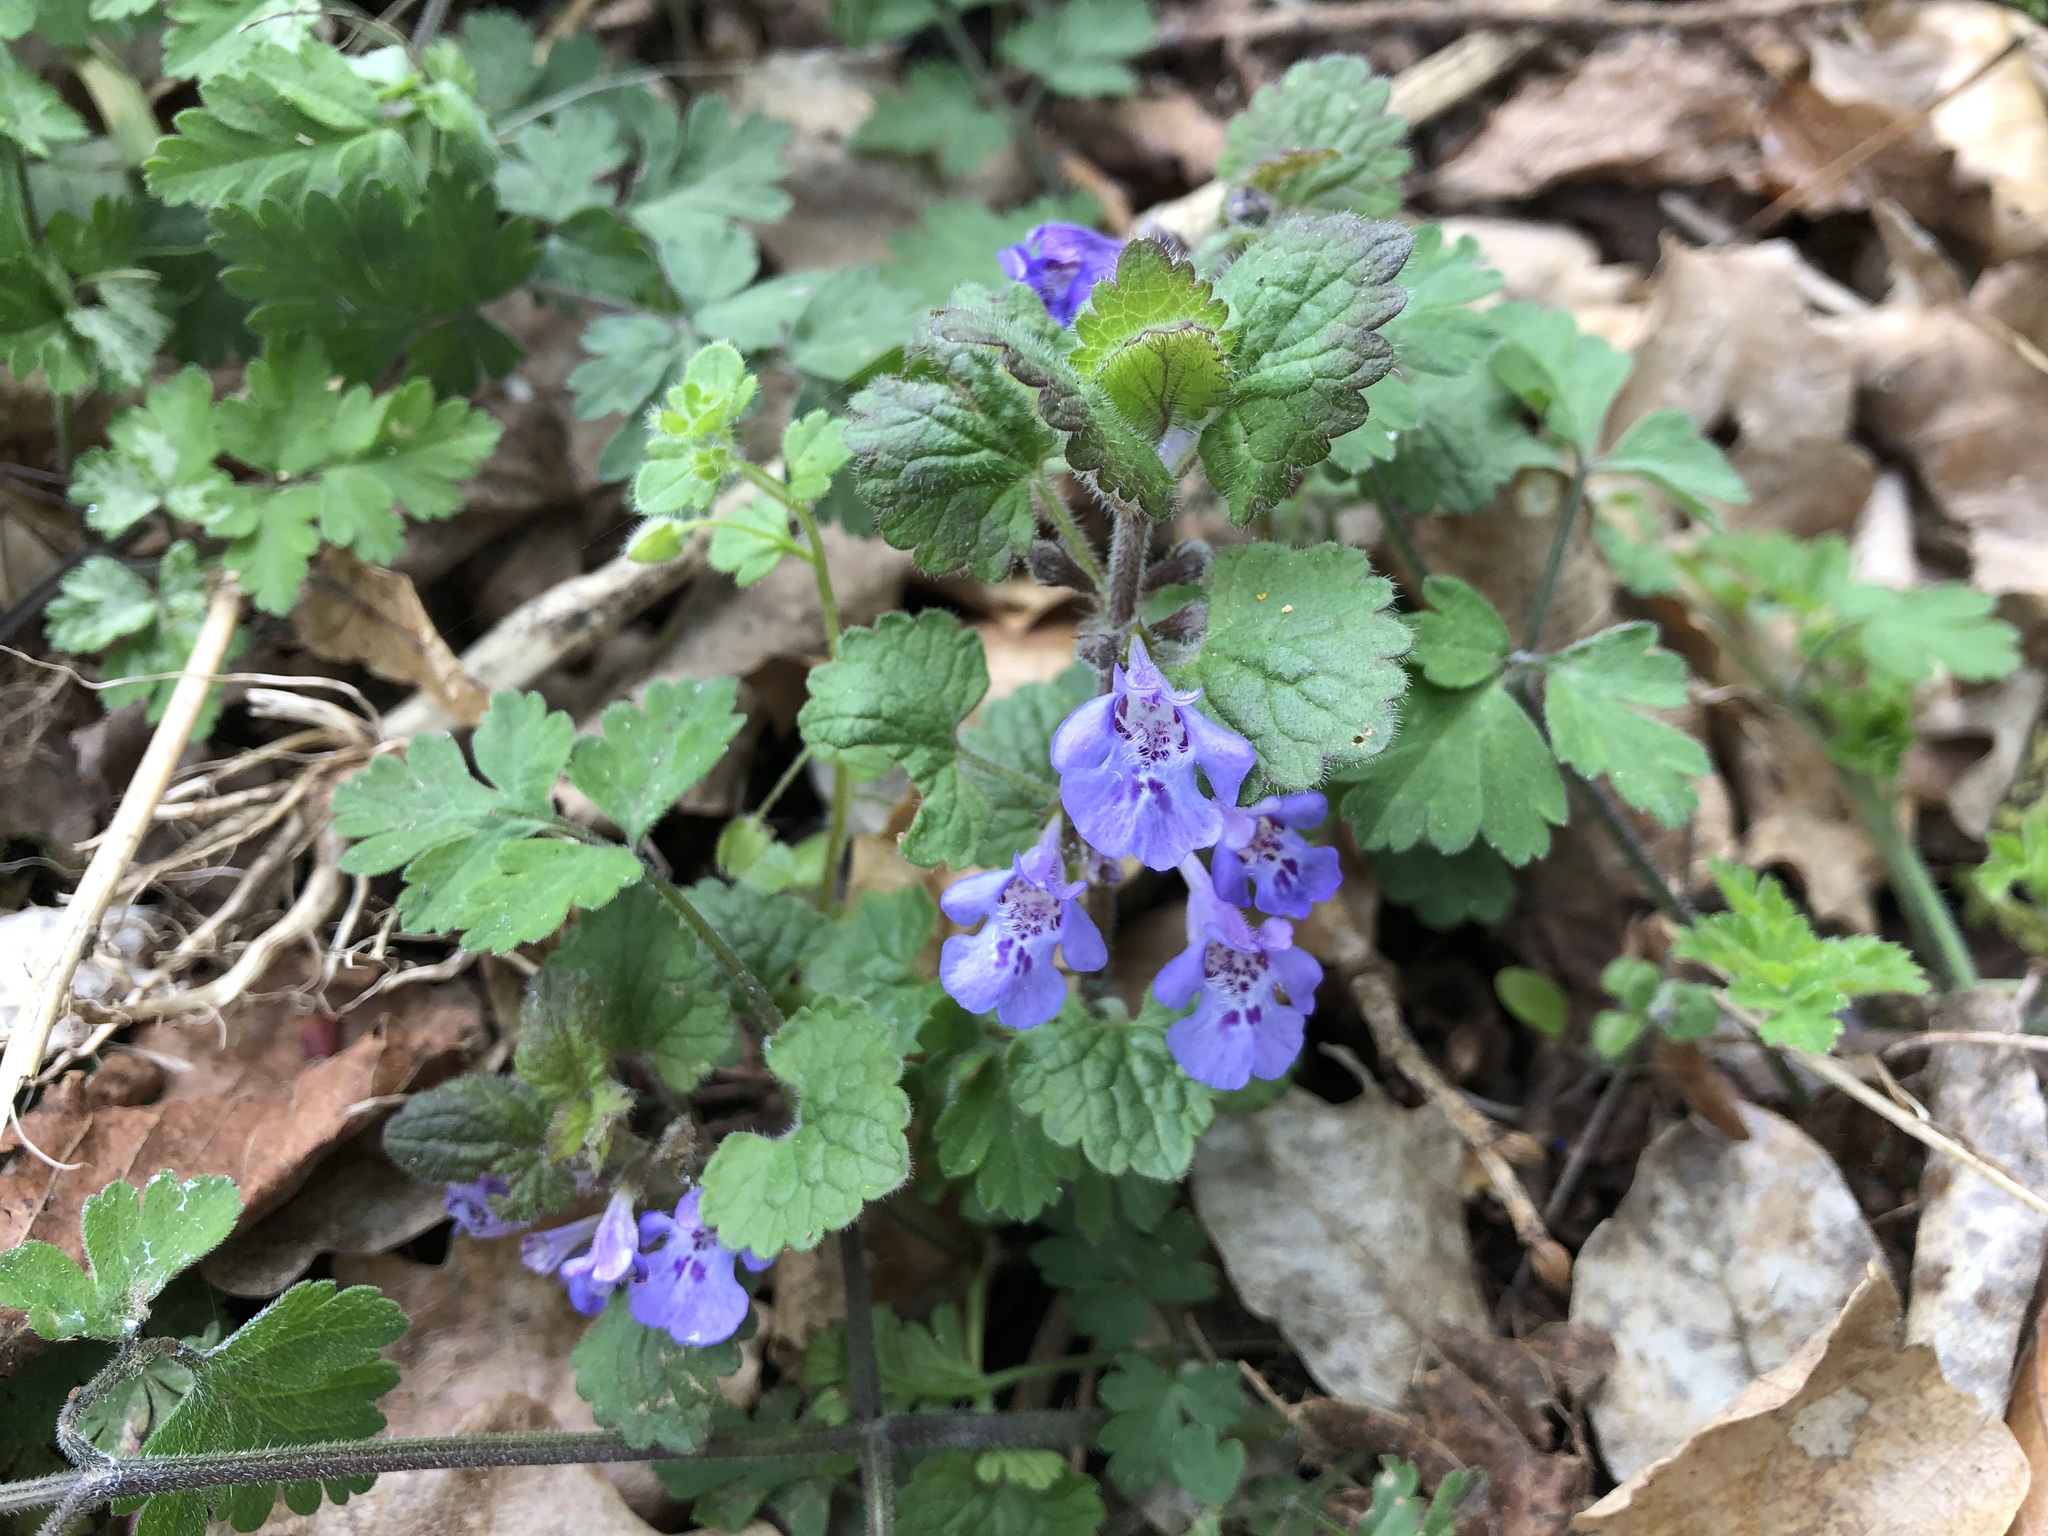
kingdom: Plantae
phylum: Tracheophyta
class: Magnoliopsida
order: Lamiales
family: Lamiaceae
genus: Glechoma
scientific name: Glechoma hederacea
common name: Ground ivy
